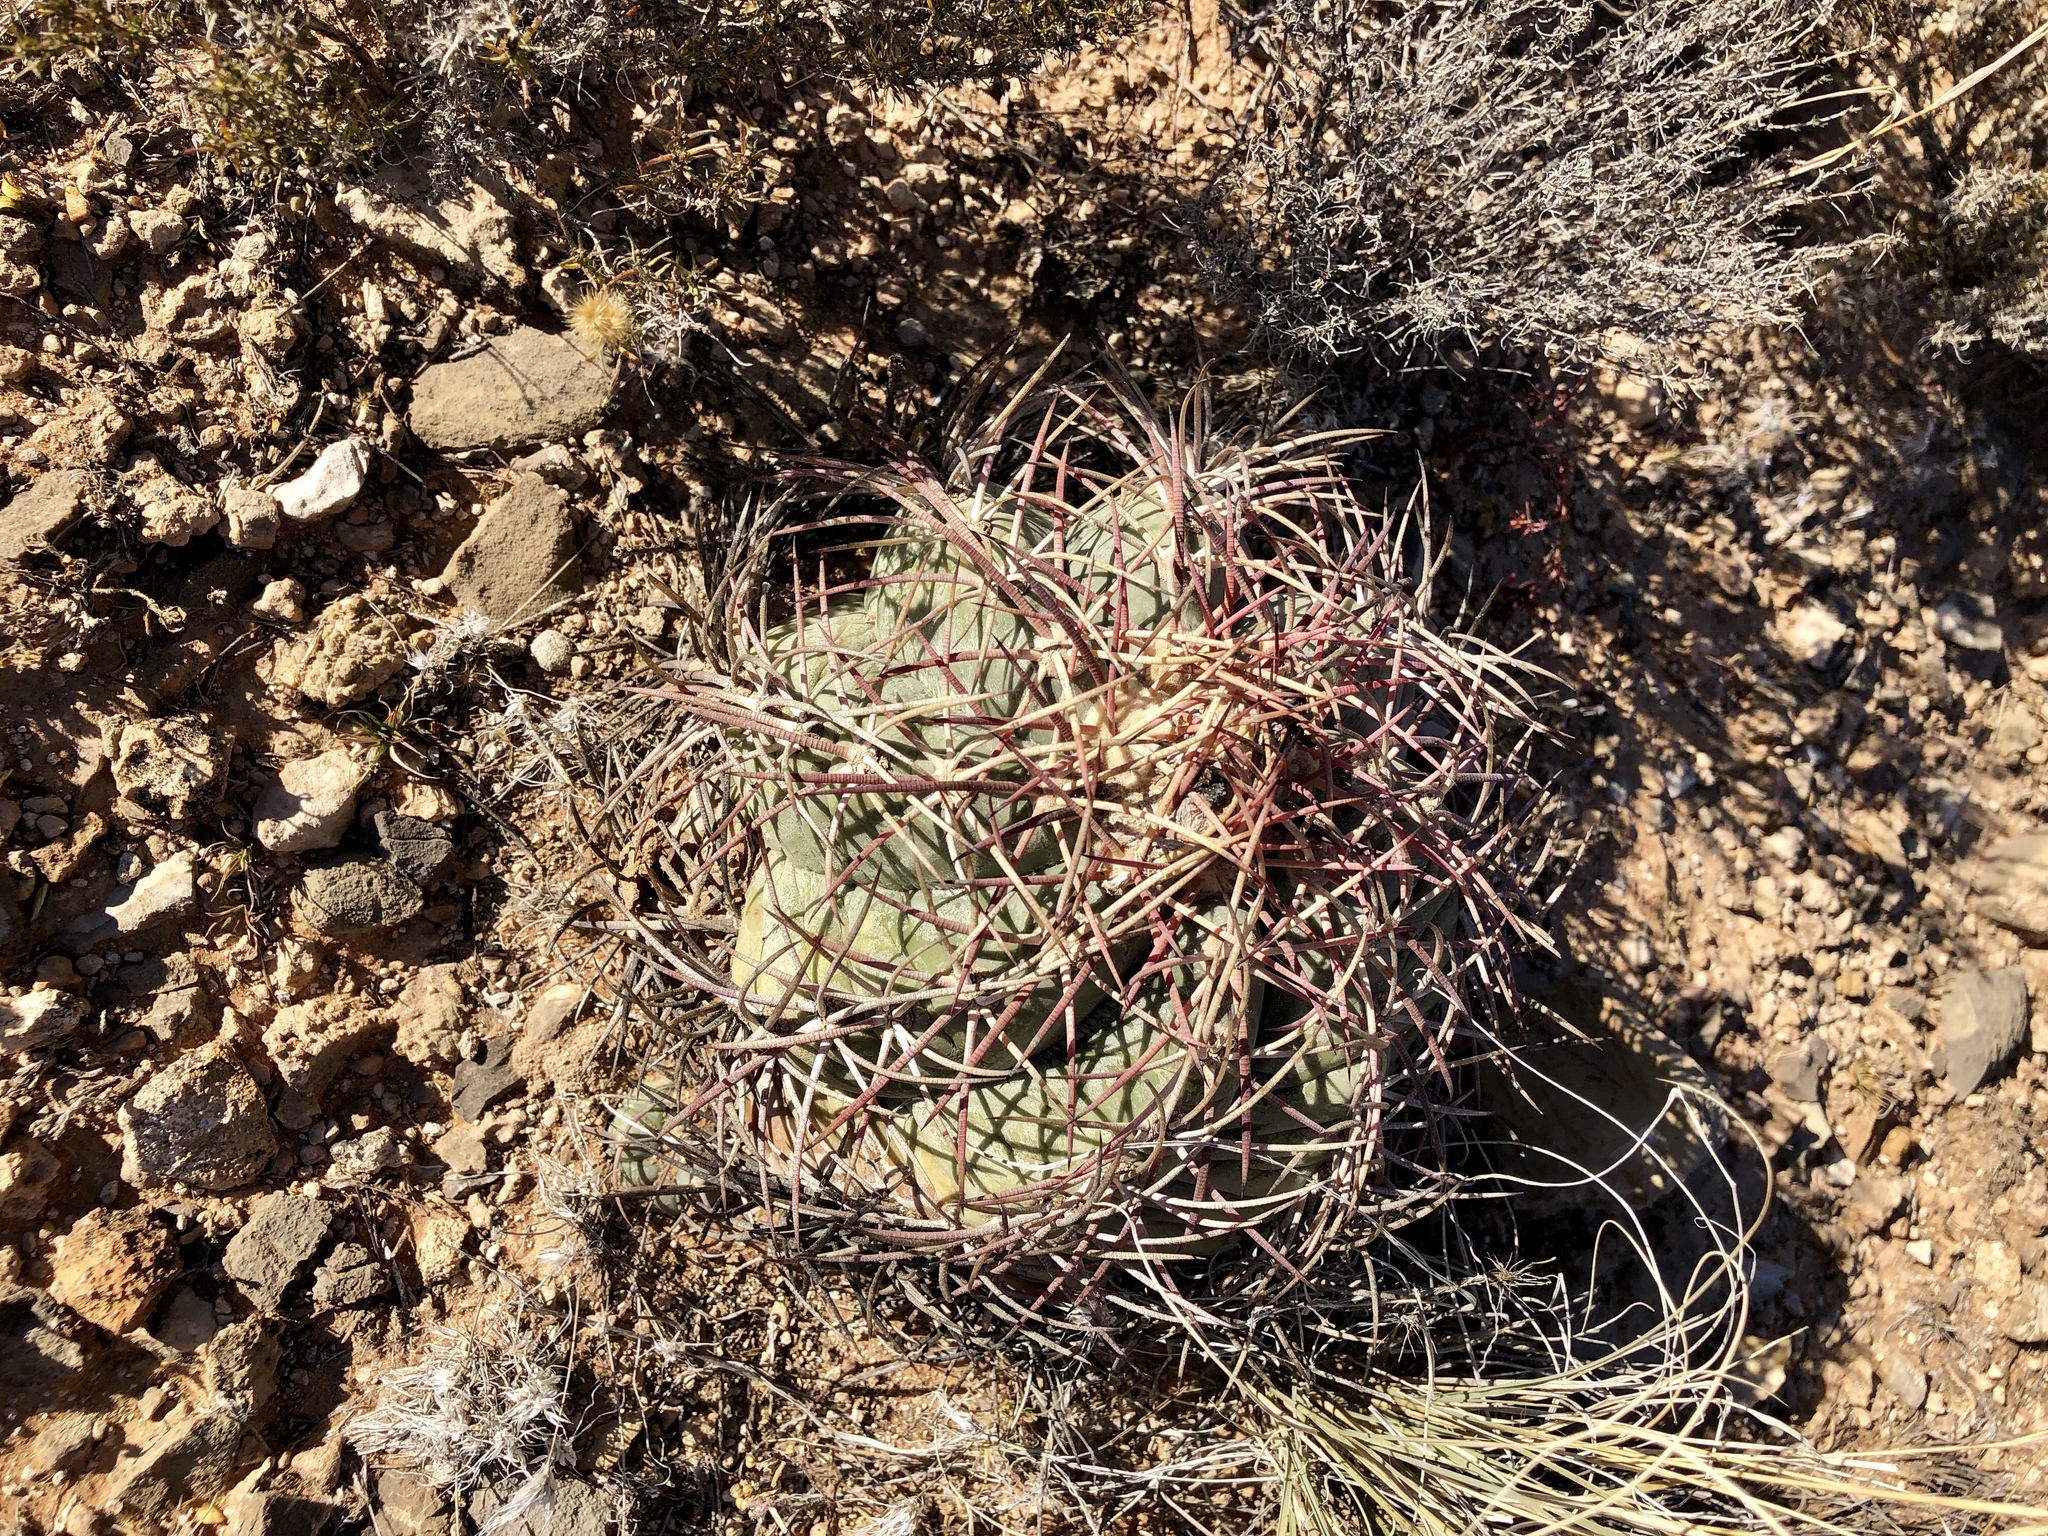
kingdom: Plantae
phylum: Tracheophyta
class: Magnoliopsida
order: Caryophyllales
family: Cactaceae
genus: Echinocactus
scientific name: Echinocactus horizonthalonius
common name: Devilshead
